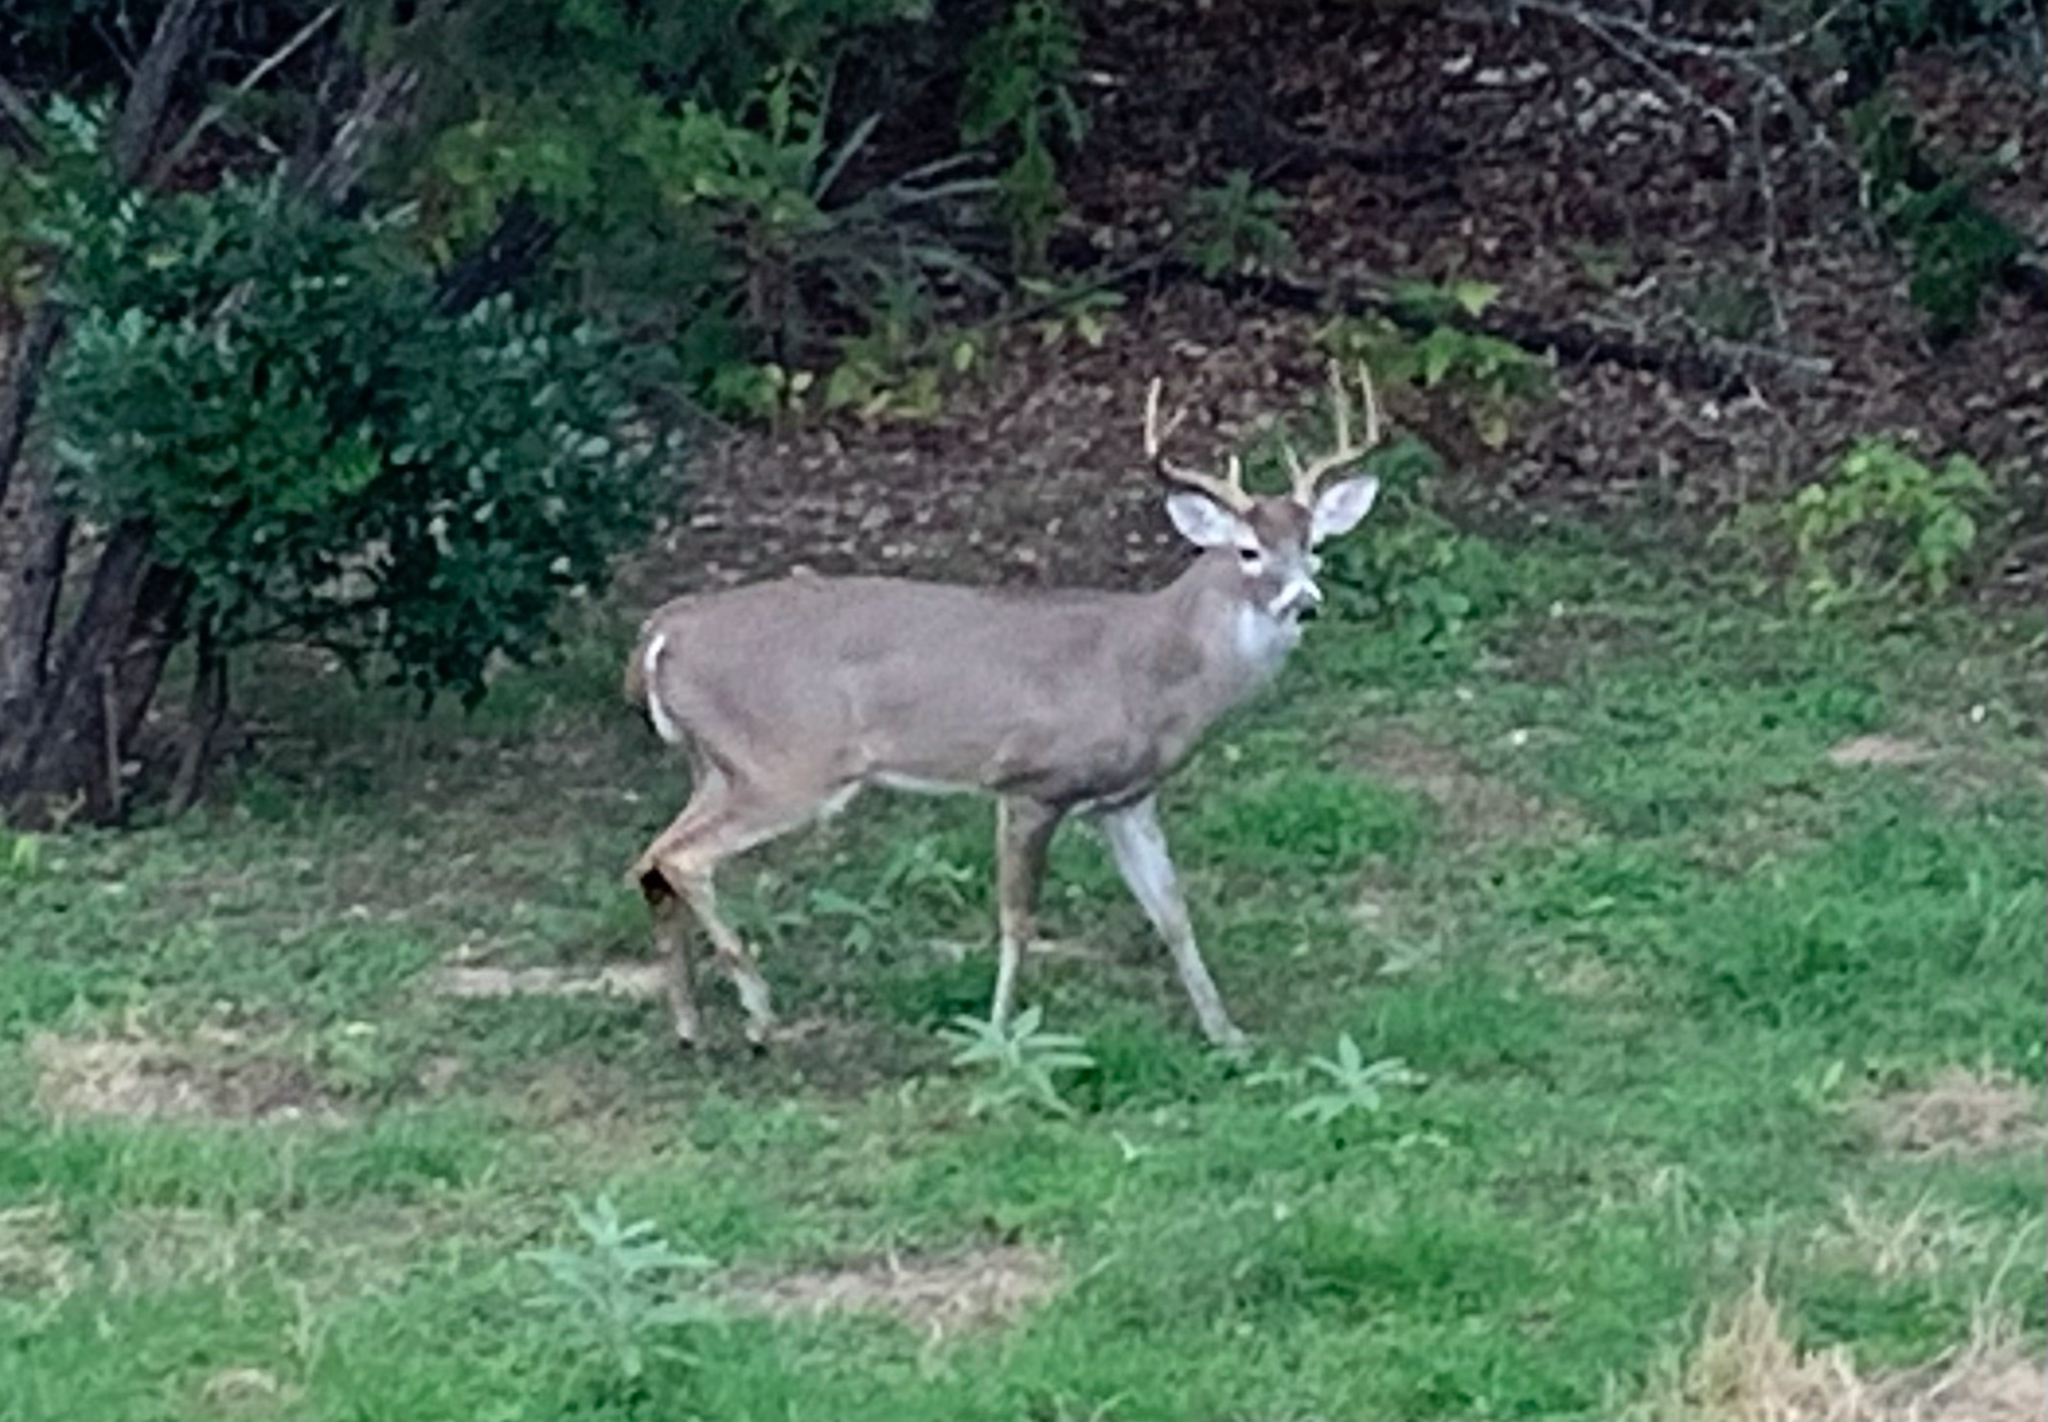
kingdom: Animalia
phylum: Chordata
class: Mammalia
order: Artiodactyla
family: Cervidae
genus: Odocoileus
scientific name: Odocoileus virginianus
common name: White-tailed deer
